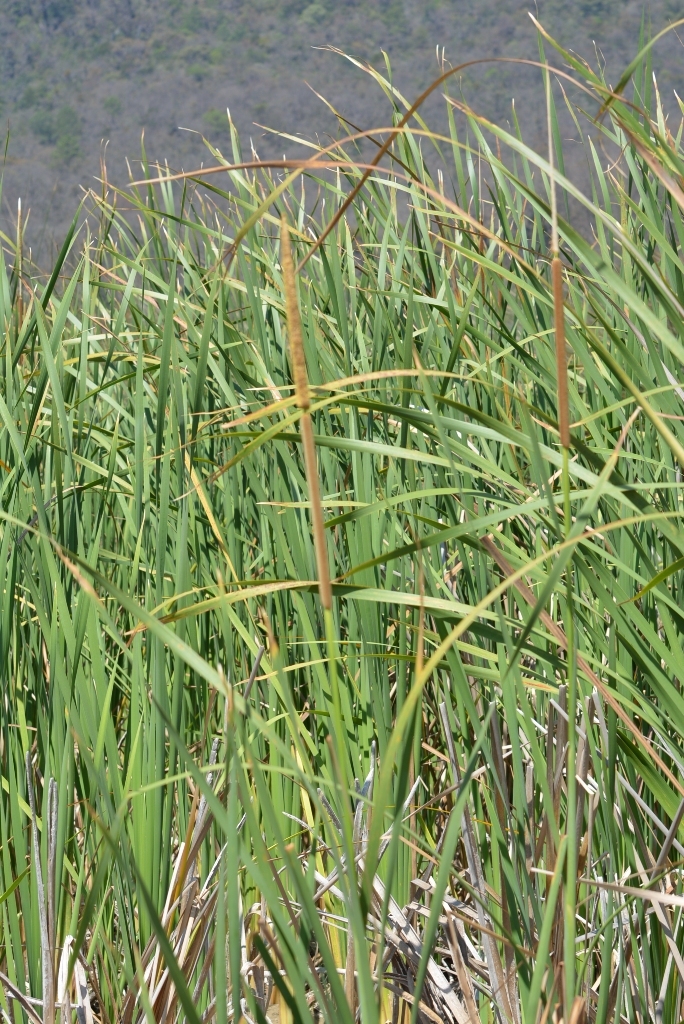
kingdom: Plantae
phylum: Tracheophyta
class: Liliopsida
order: Poales
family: Typhaceae
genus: Typha
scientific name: Typha domingensis
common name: Southern cattail
